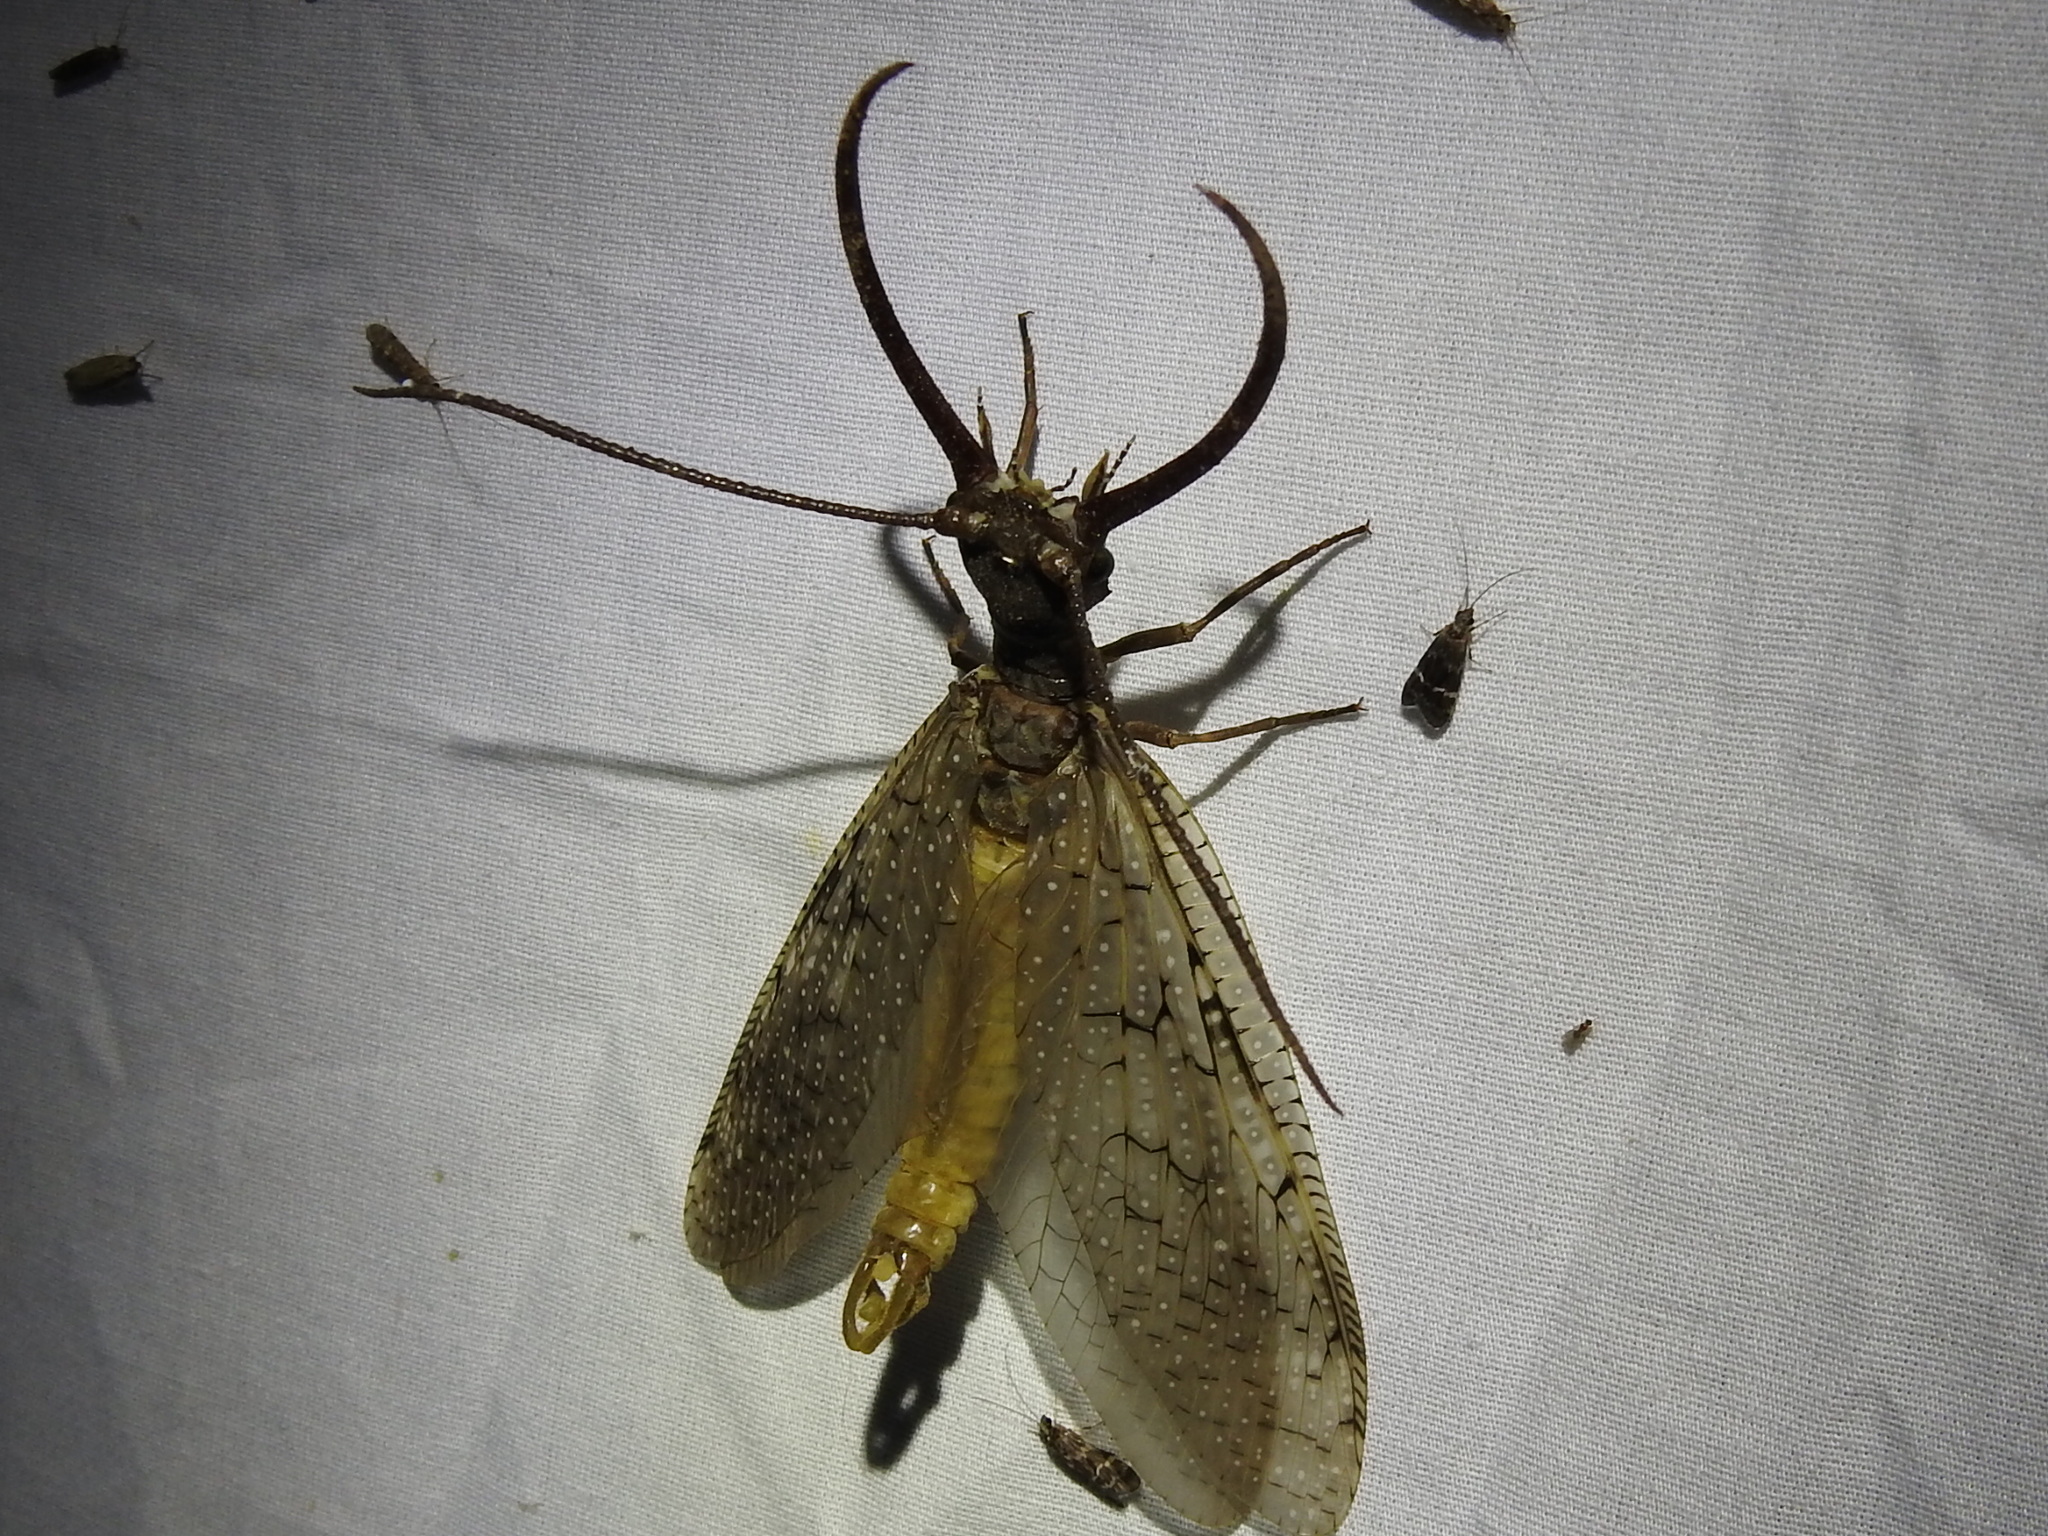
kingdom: Animalia
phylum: Arthropoda
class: Insecta
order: Megaloptera
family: Corydalidae
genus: Corydalus
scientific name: Corydalus cornutus
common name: Dobsonfly
